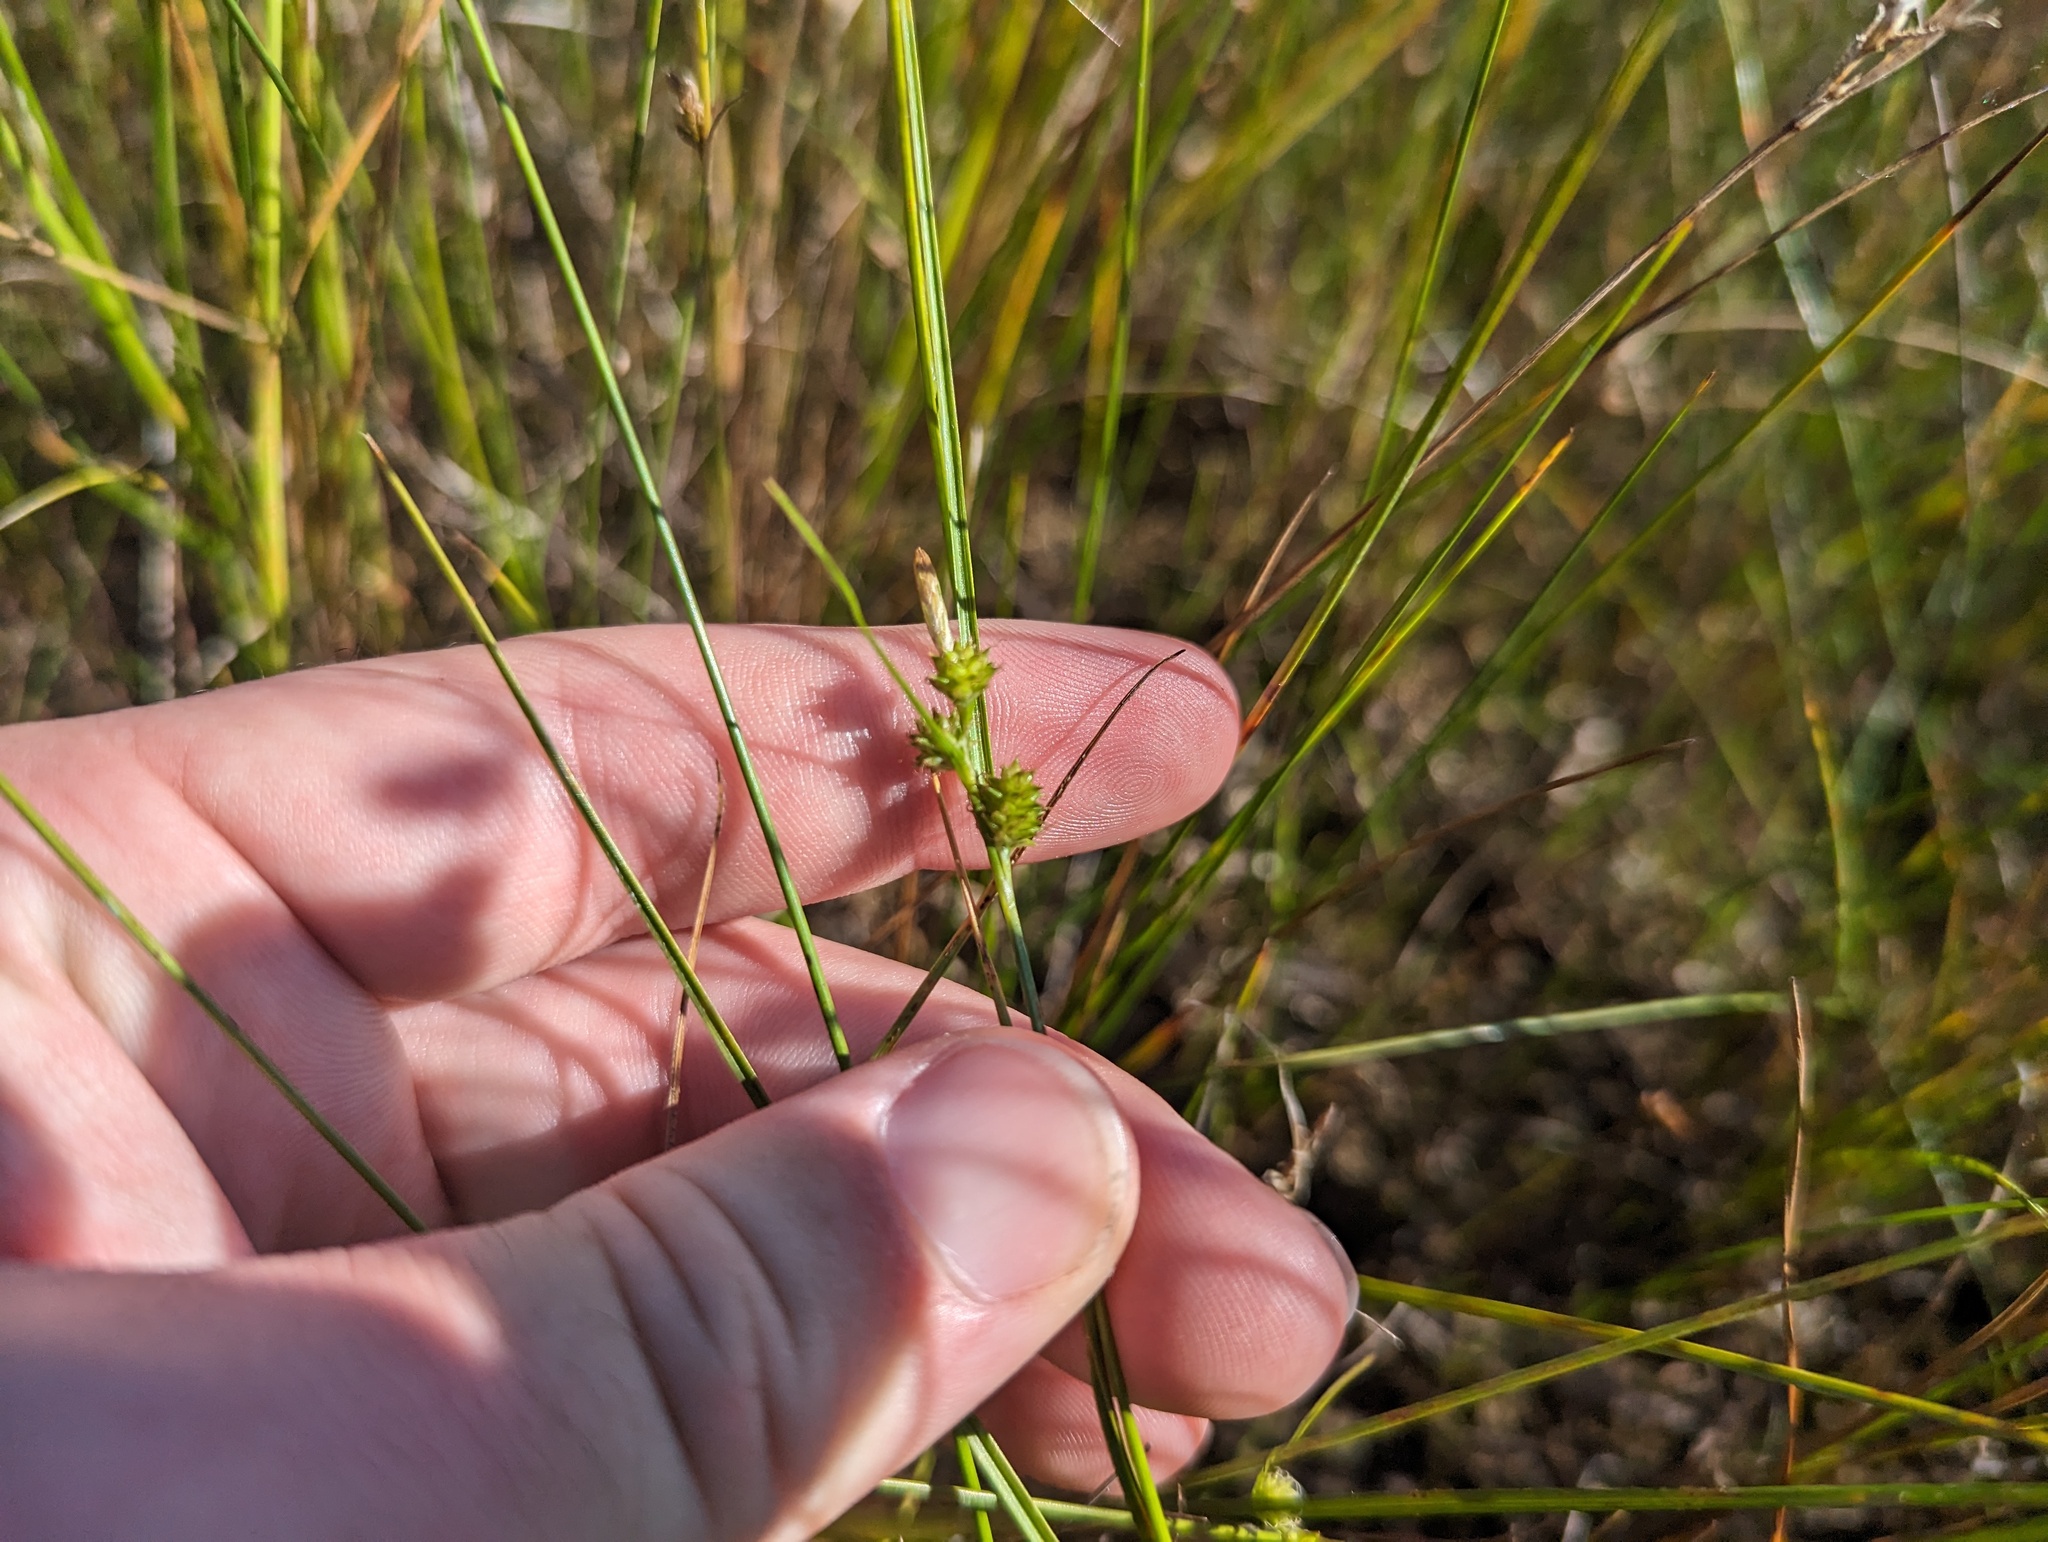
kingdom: Plantae
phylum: Tracheophyta
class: Liliopsida
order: Poales
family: Cyperaceae
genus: Carex
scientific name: Carex
